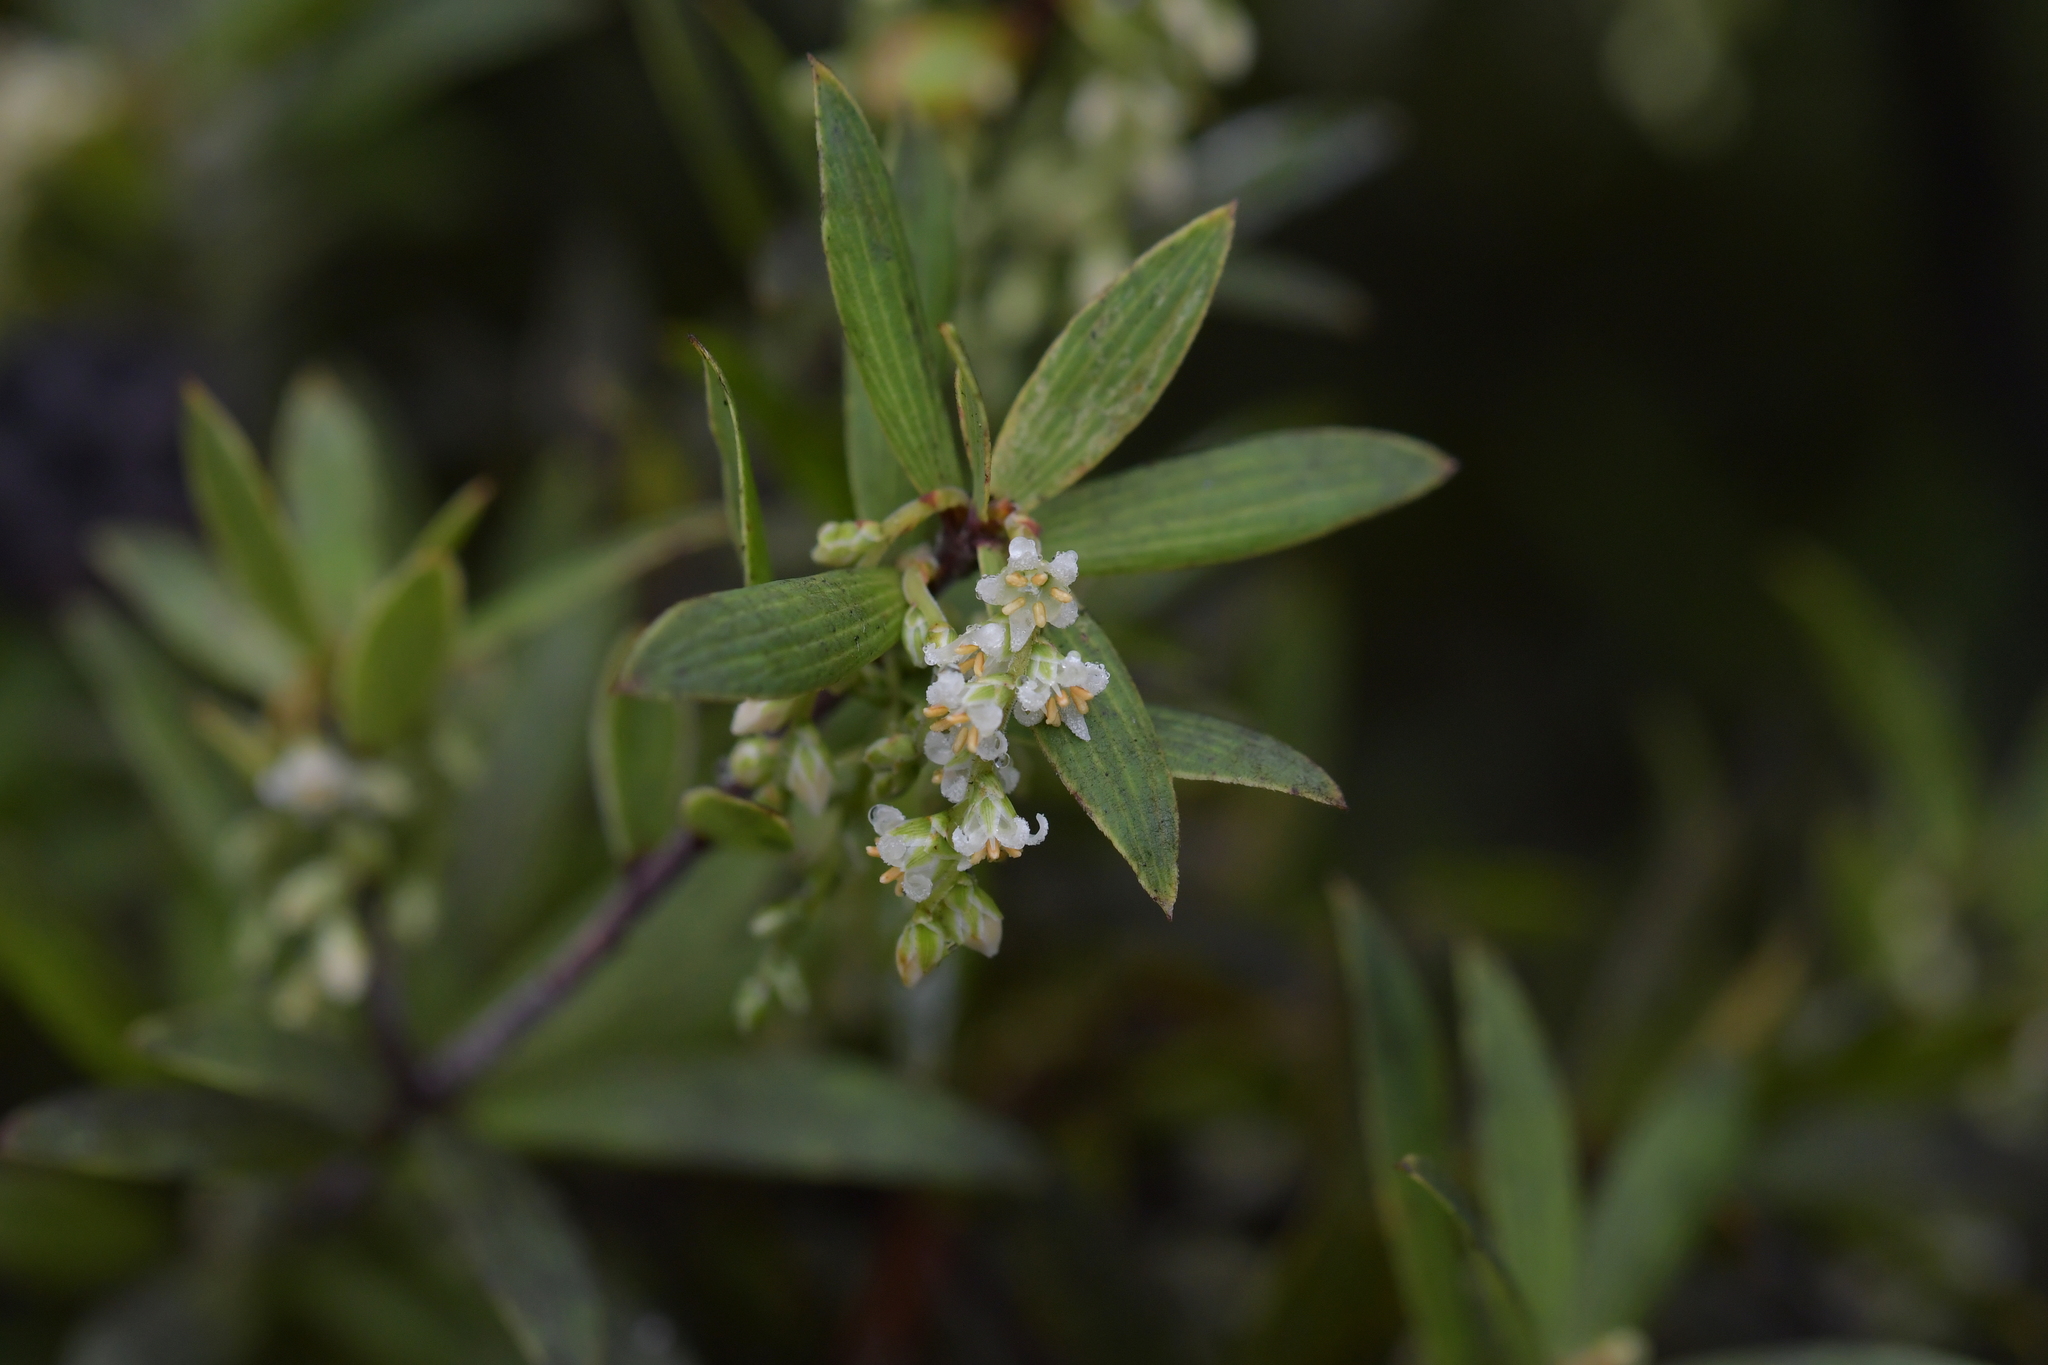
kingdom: Plantae
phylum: Tracheophyta
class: Magnoliopsida
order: Ericales
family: Ericaceae
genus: Leucopogon
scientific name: Leucopogon fasciculatus
